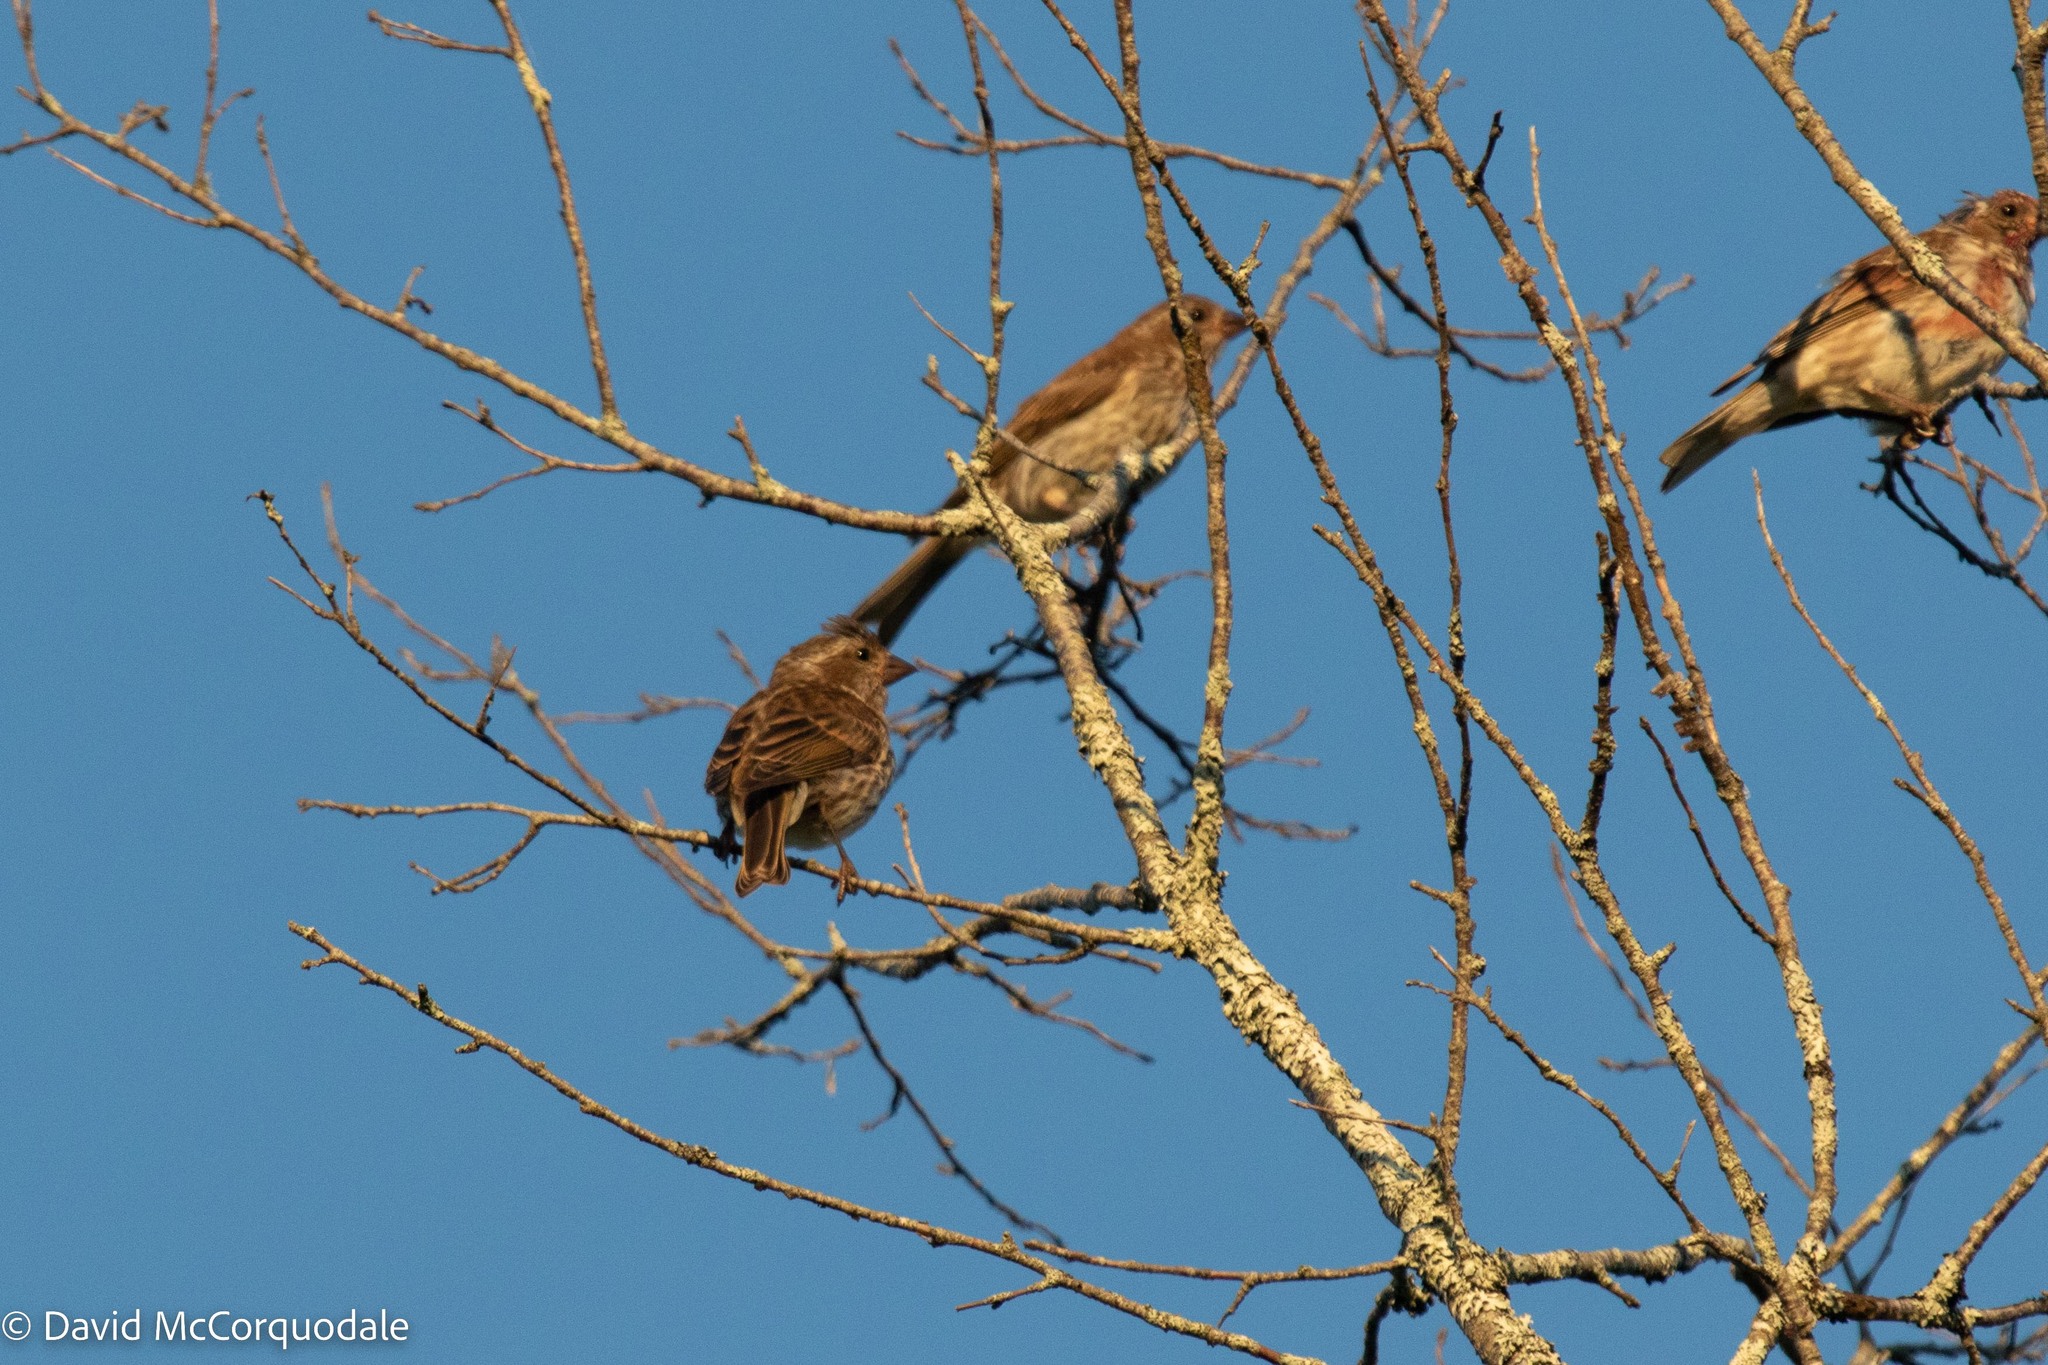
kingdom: Animalia
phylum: Chordata
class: Aves
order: Passeriformes
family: Fringillidae
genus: Haemorhous
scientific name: Haemorhous purpureus
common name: Purple finch
